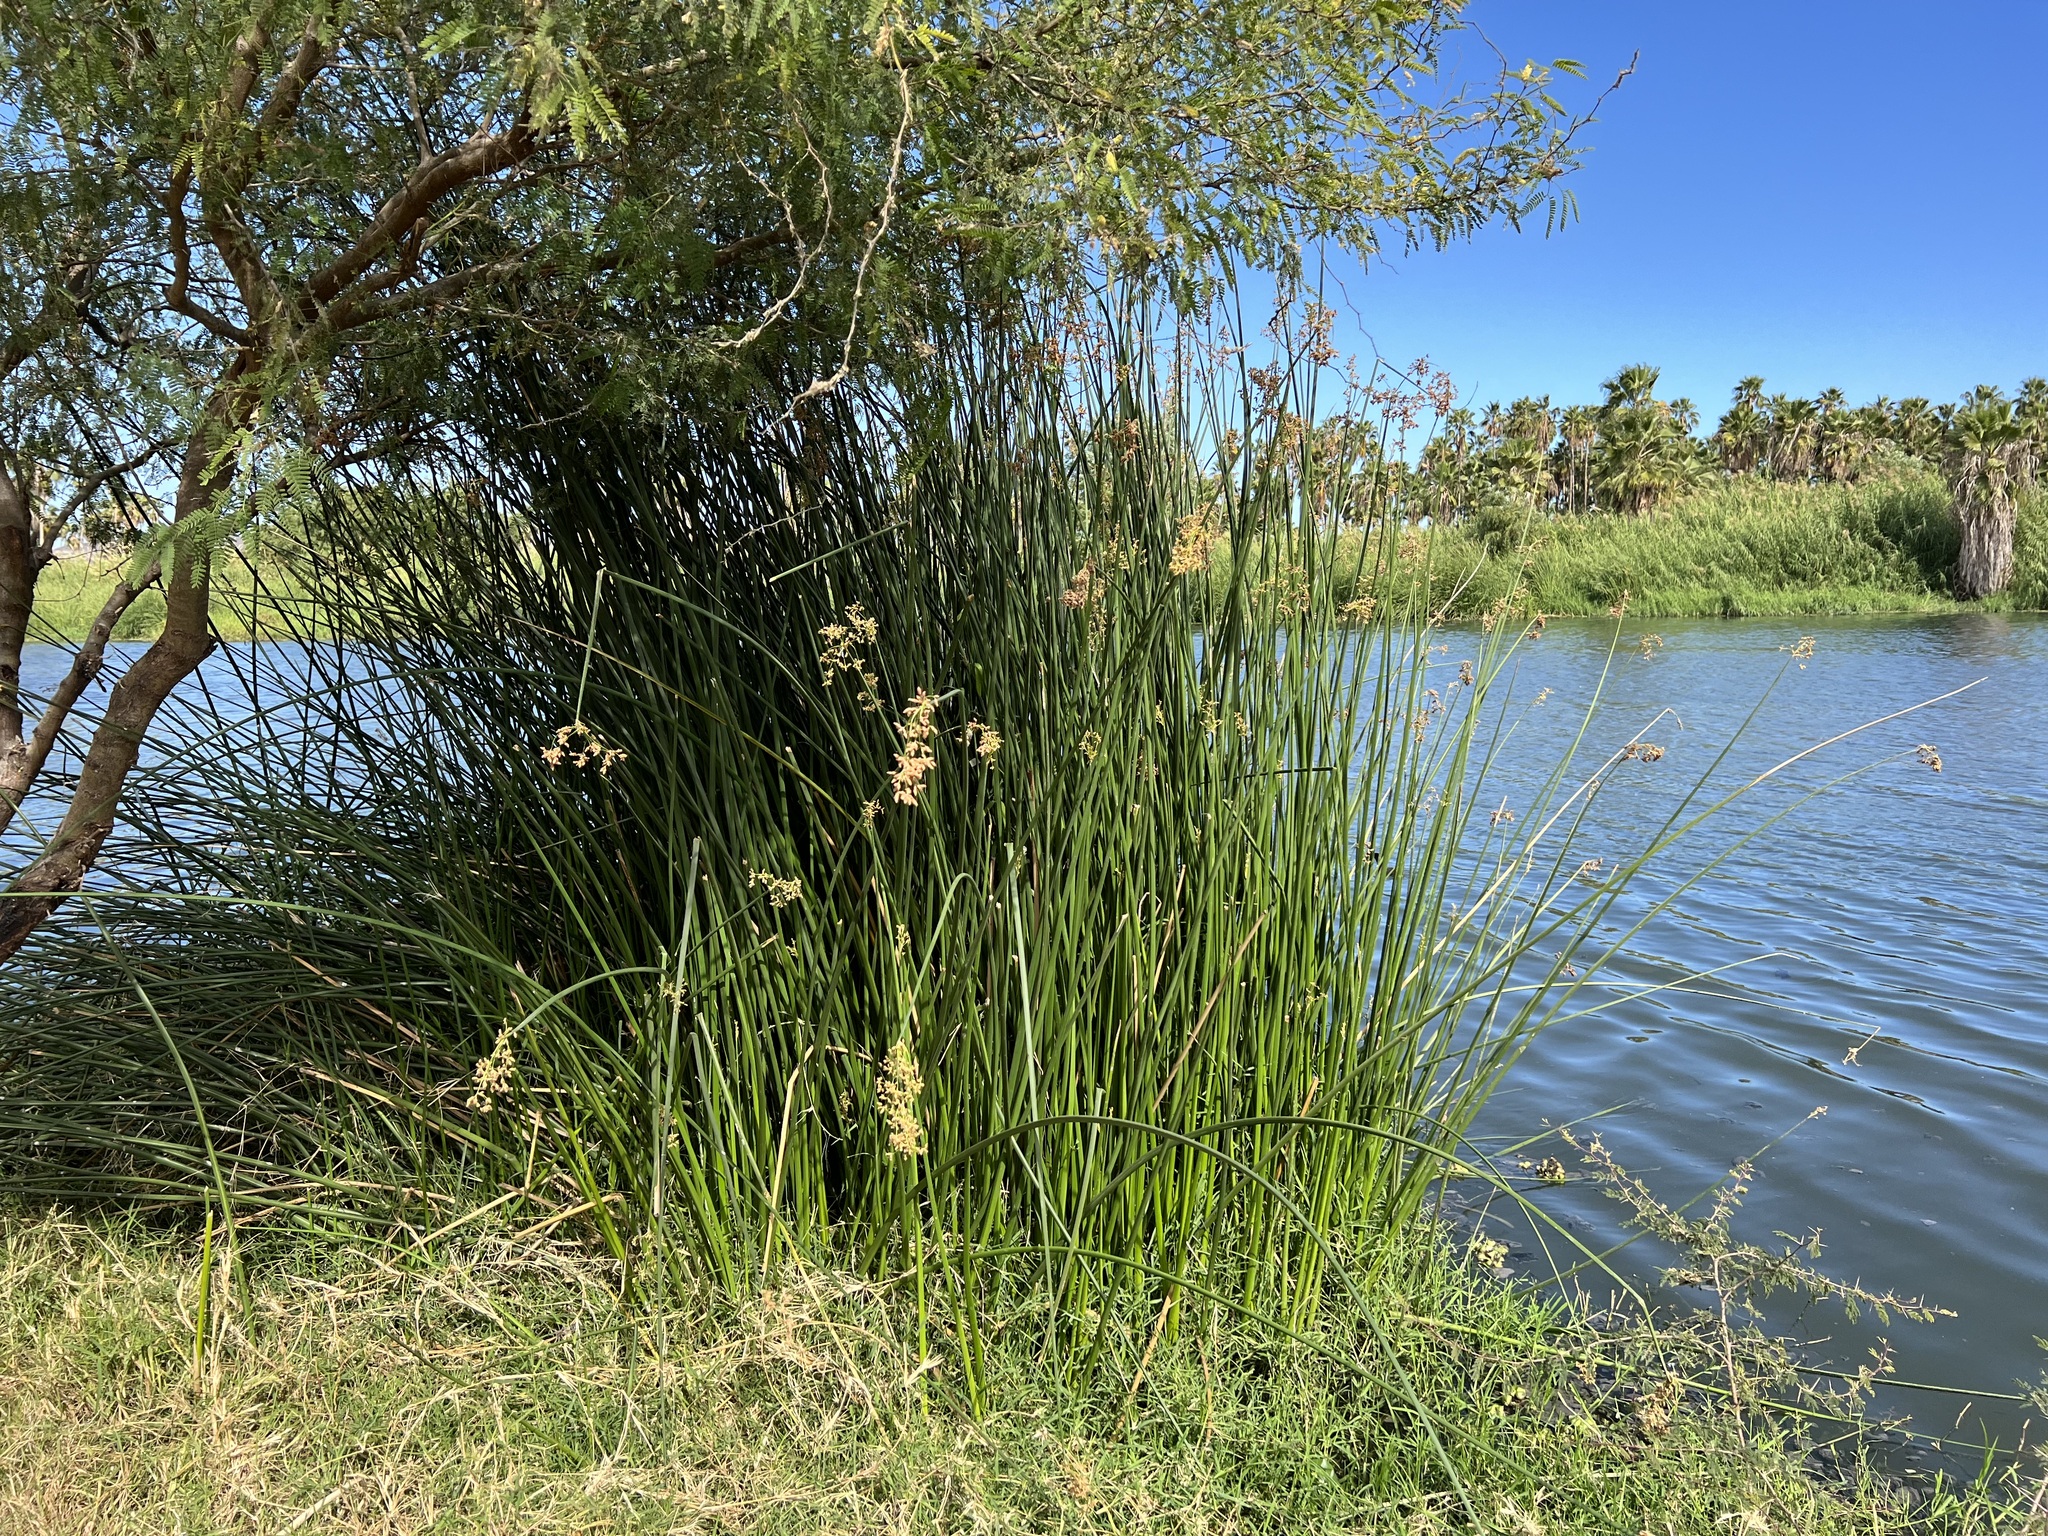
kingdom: Plantae
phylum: Tracheophyta
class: Liliopsida
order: Poales
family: Cyperaceae
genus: Schoenoplectus
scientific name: Schoenoplectus californicus
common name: California bulrush
